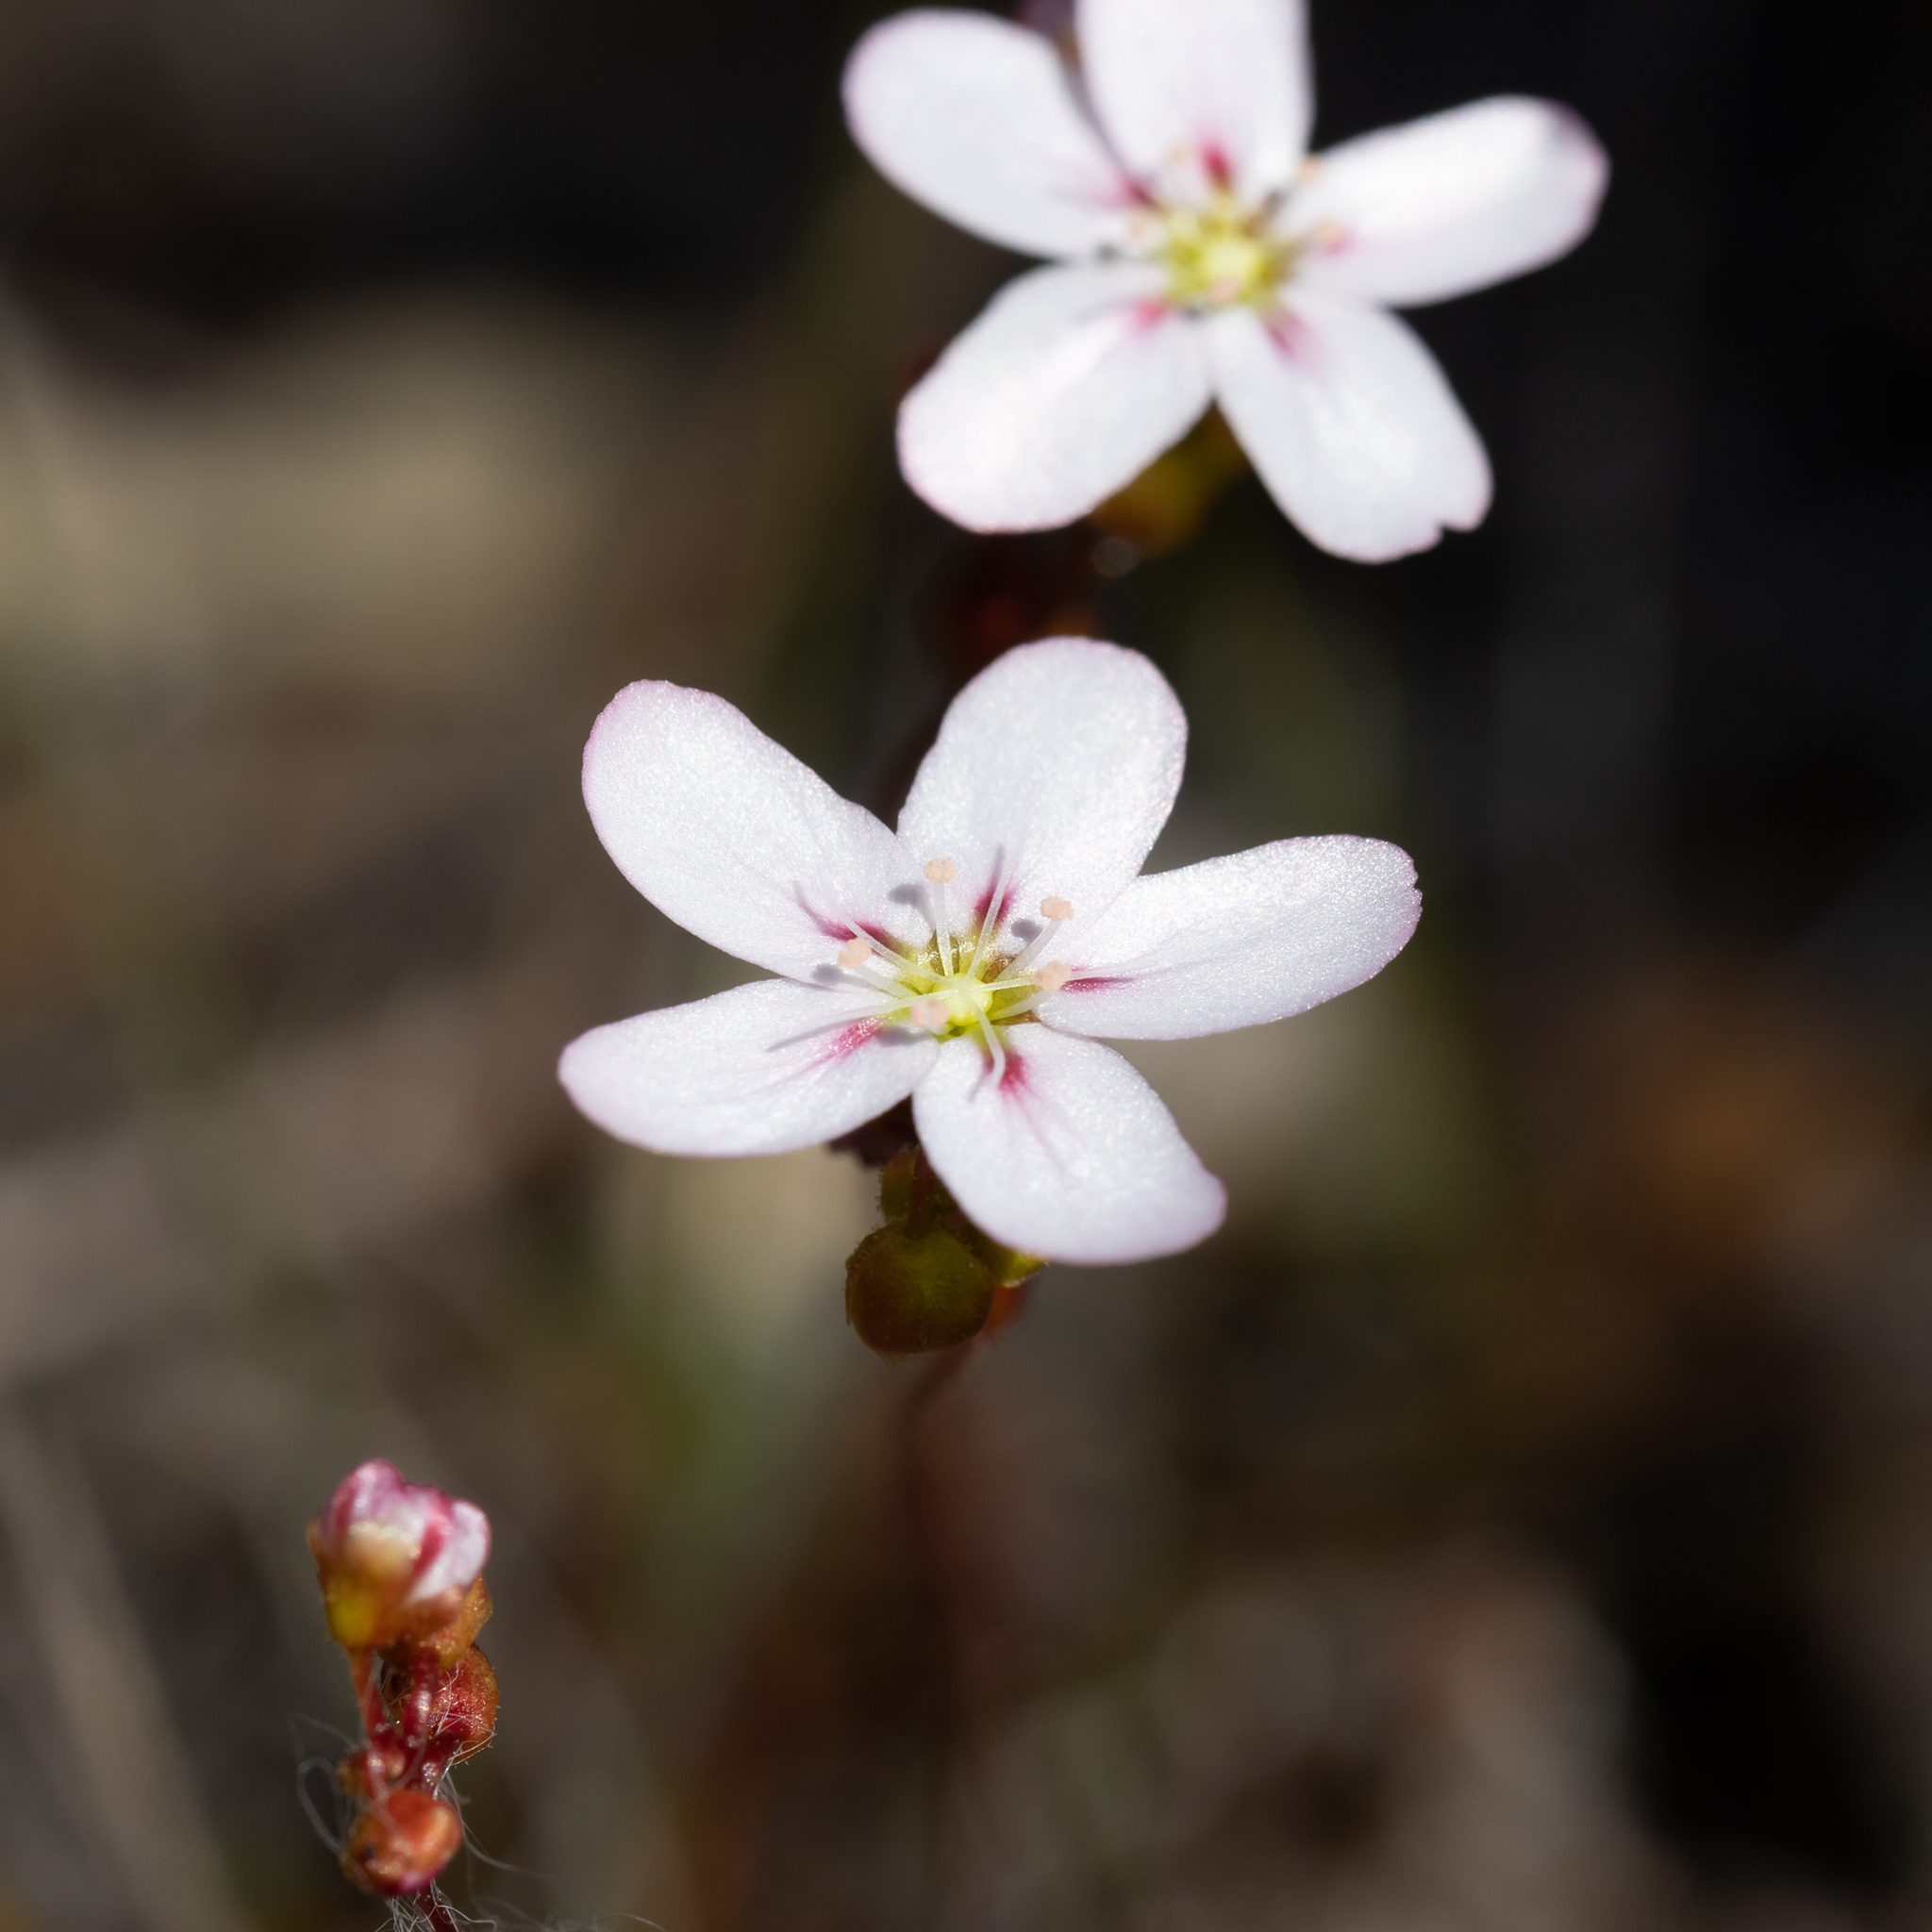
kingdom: Plantae
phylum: Tracheophyta
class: Magnoliopsida
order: Caryophyllales
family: Droseraceae
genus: Drosera
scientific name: Drosera androsacea
